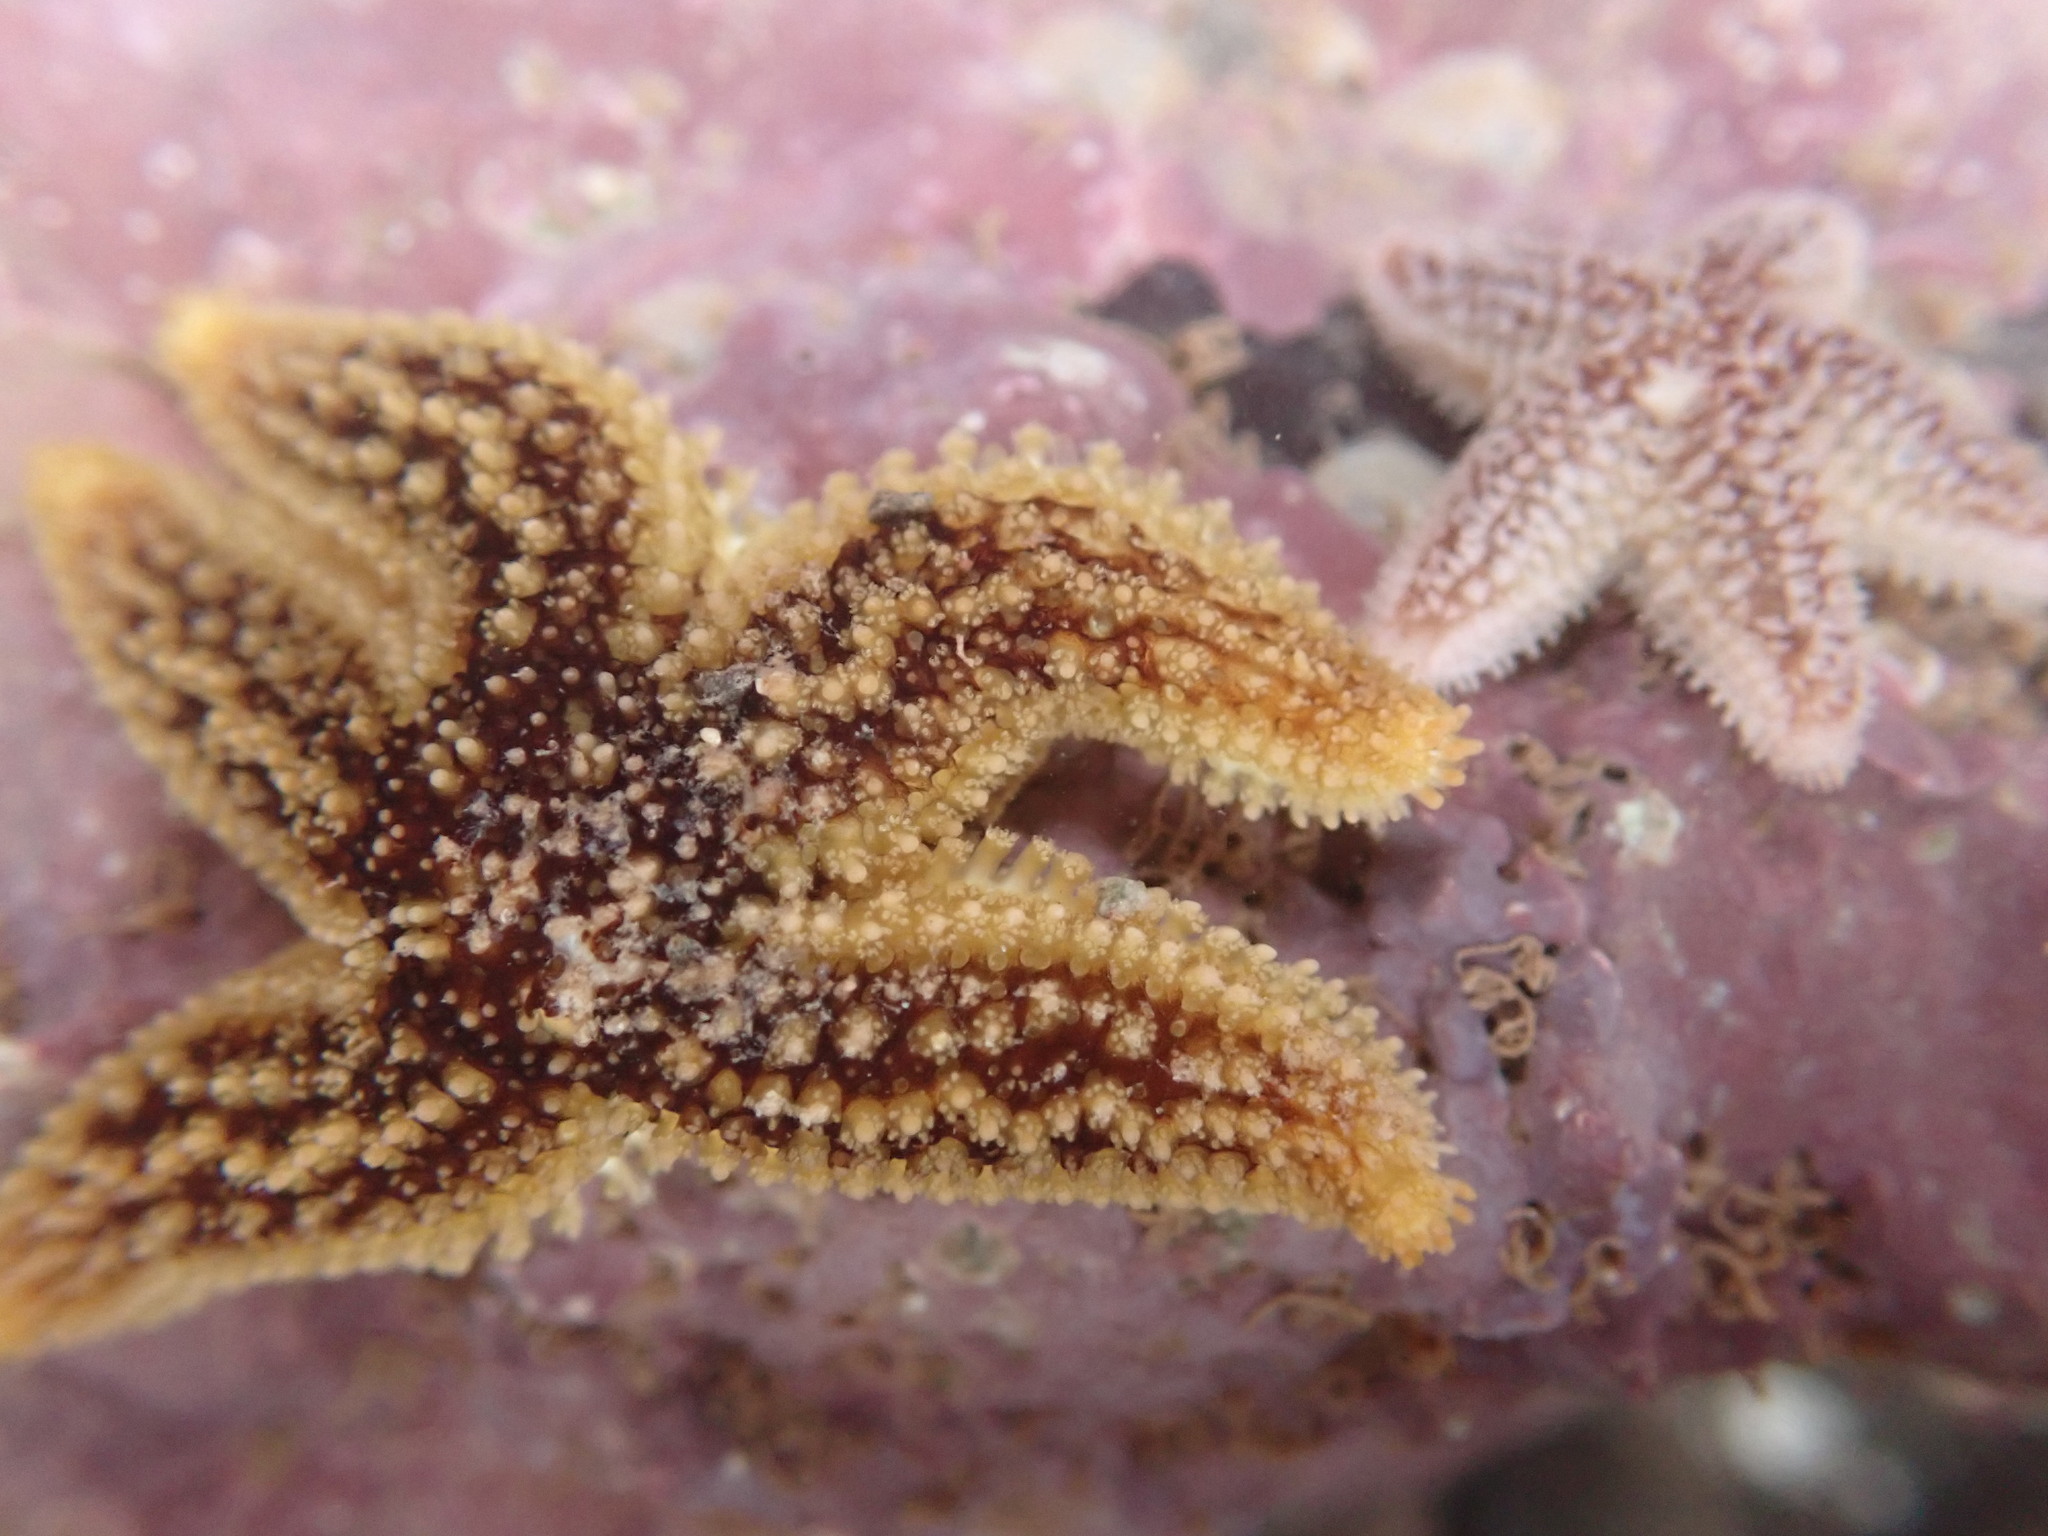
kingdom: Animalia
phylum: Echinodermata
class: Asteroidea
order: Forcipulatida
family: Asteriidae
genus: Asterias
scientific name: Asterias rubens
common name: Common starfish
